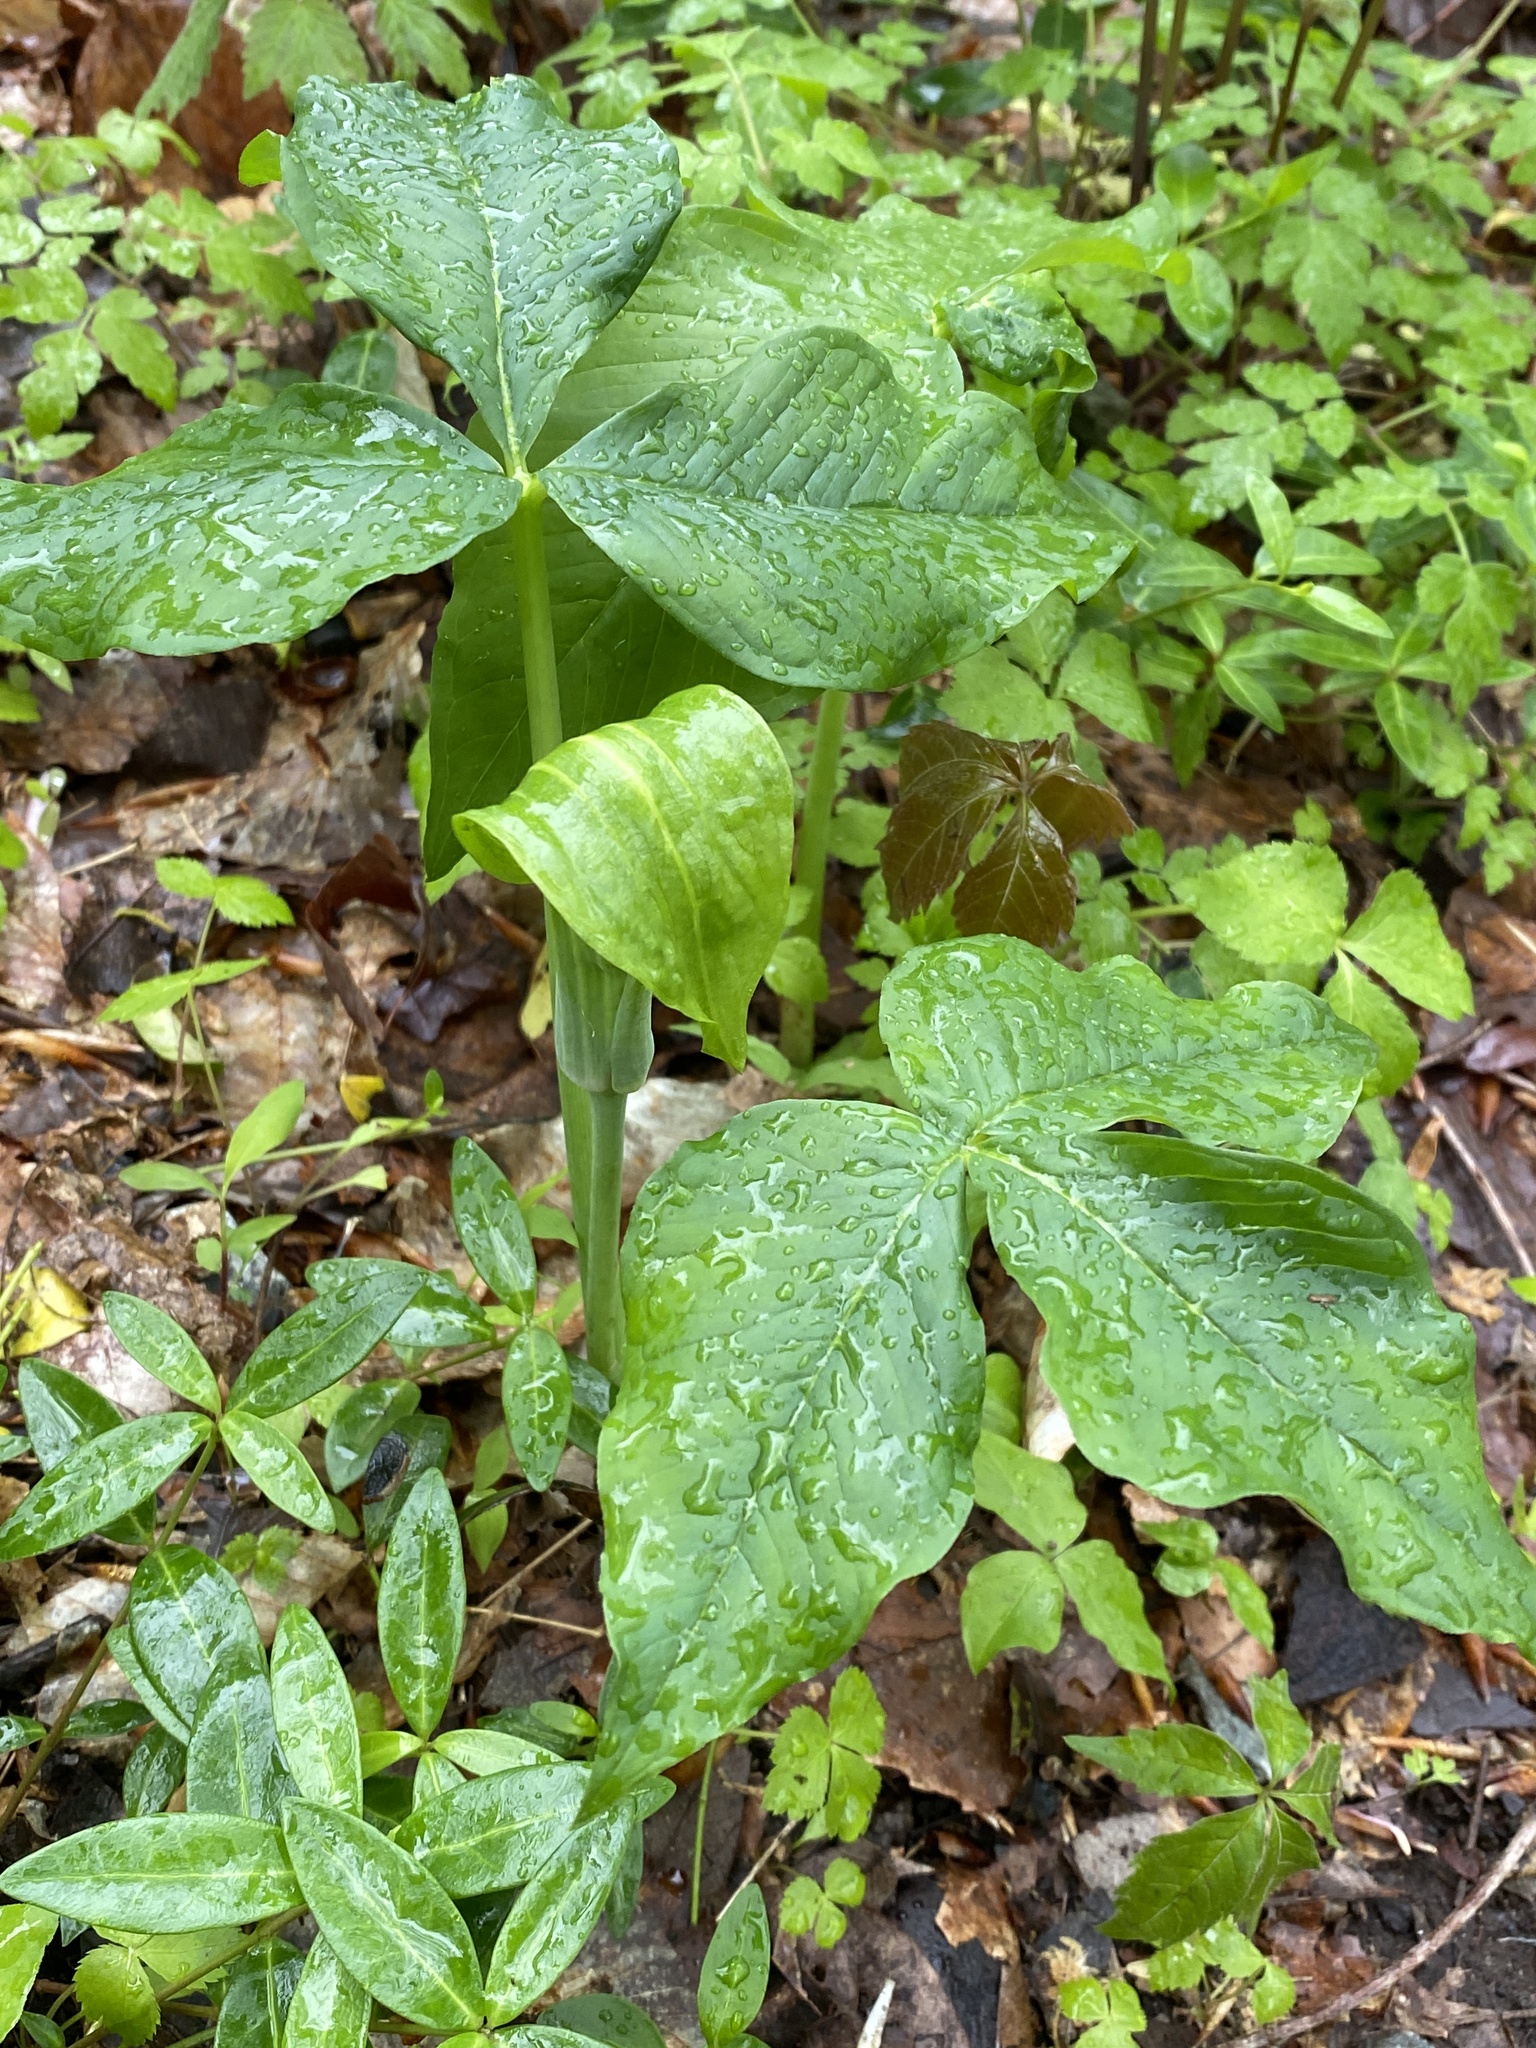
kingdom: Plantae
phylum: Tracheophyta
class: Liliopsida
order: Alismatales
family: Araceae
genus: Arisaema
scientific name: Arisaema triphyllum
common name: Jack-in-the-pulpit
